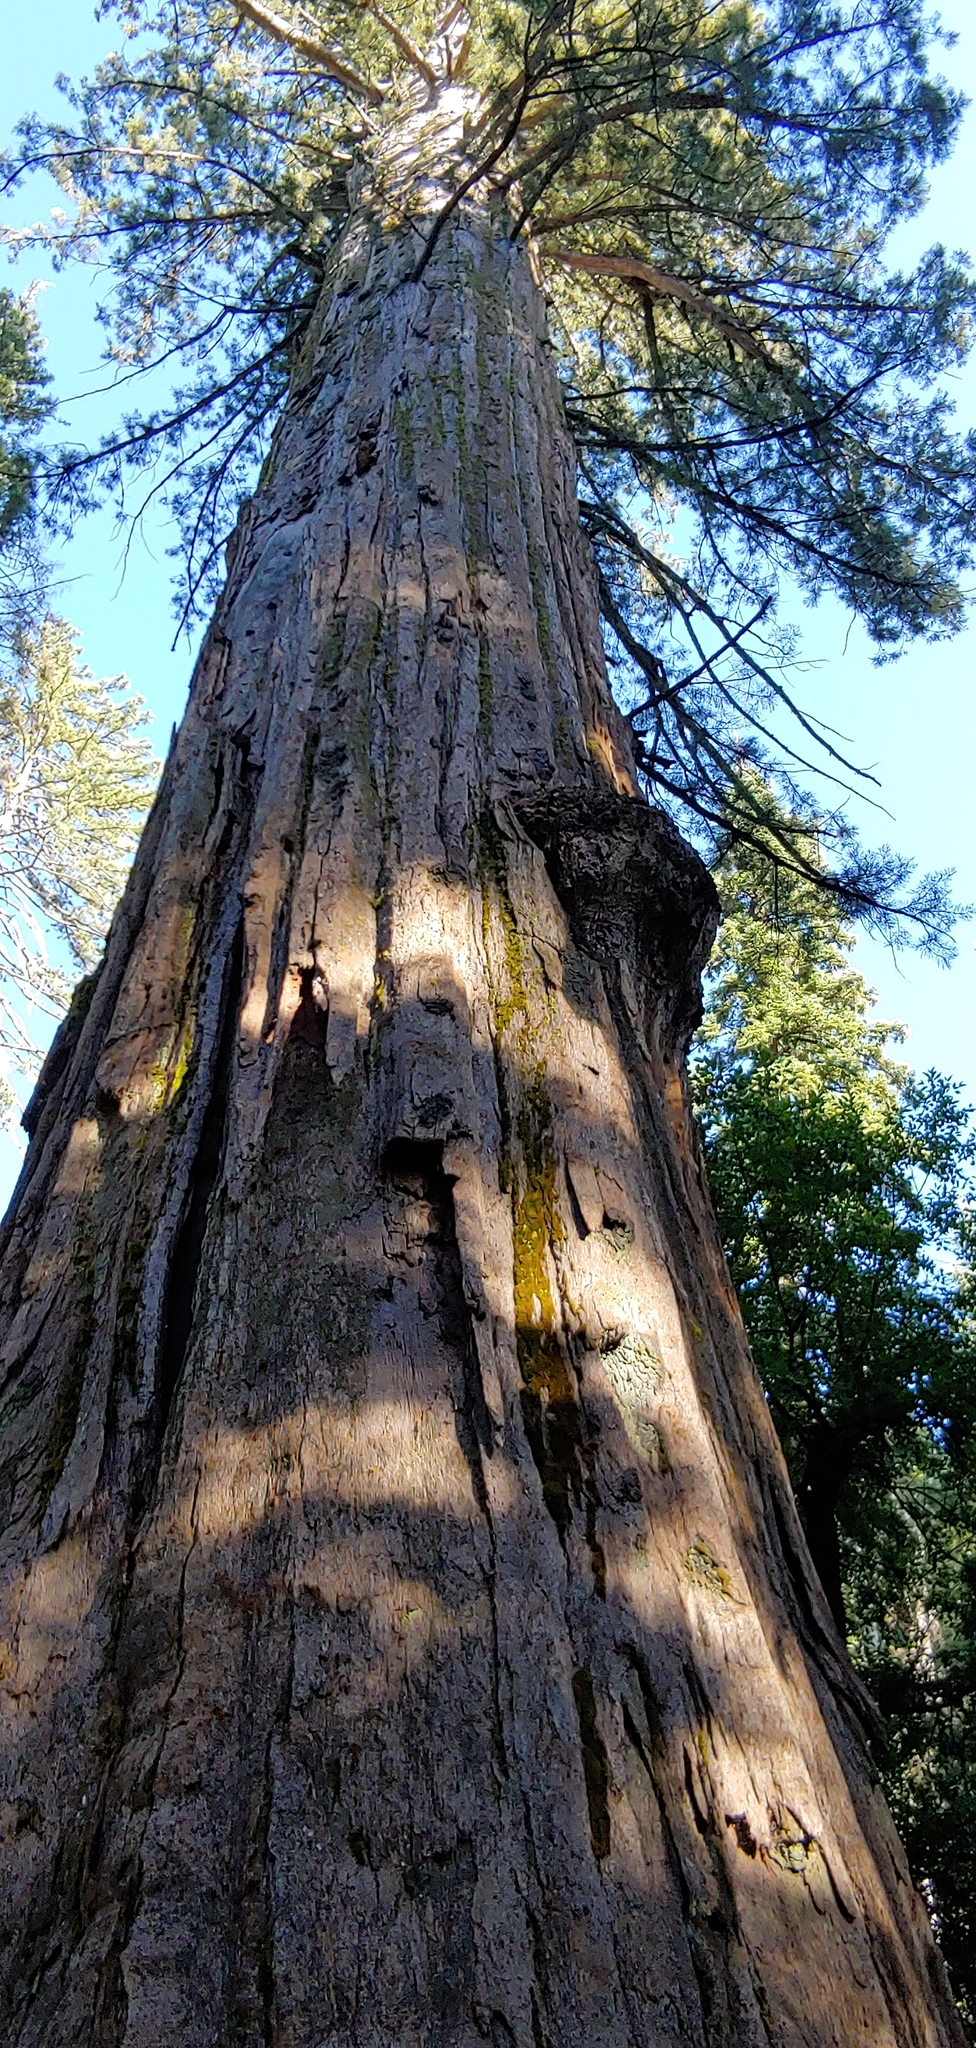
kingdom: Plantae
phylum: Tracheophyta
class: Pinopsida
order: Pinales
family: Cupressaceae
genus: Sequoiadendron
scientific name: Sequoiadendron giganteum
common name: Wellingtonia
